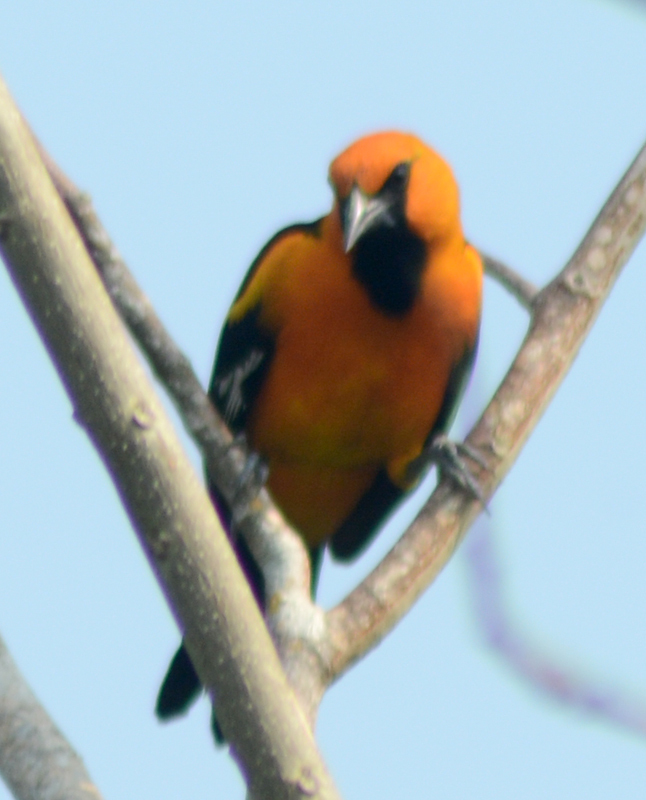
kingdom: Animalia
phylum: Chordata
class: Aves
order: Passeriformes
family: Icteridae
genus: Icterus
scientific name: Icterus gularis
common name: Altamira oriole
